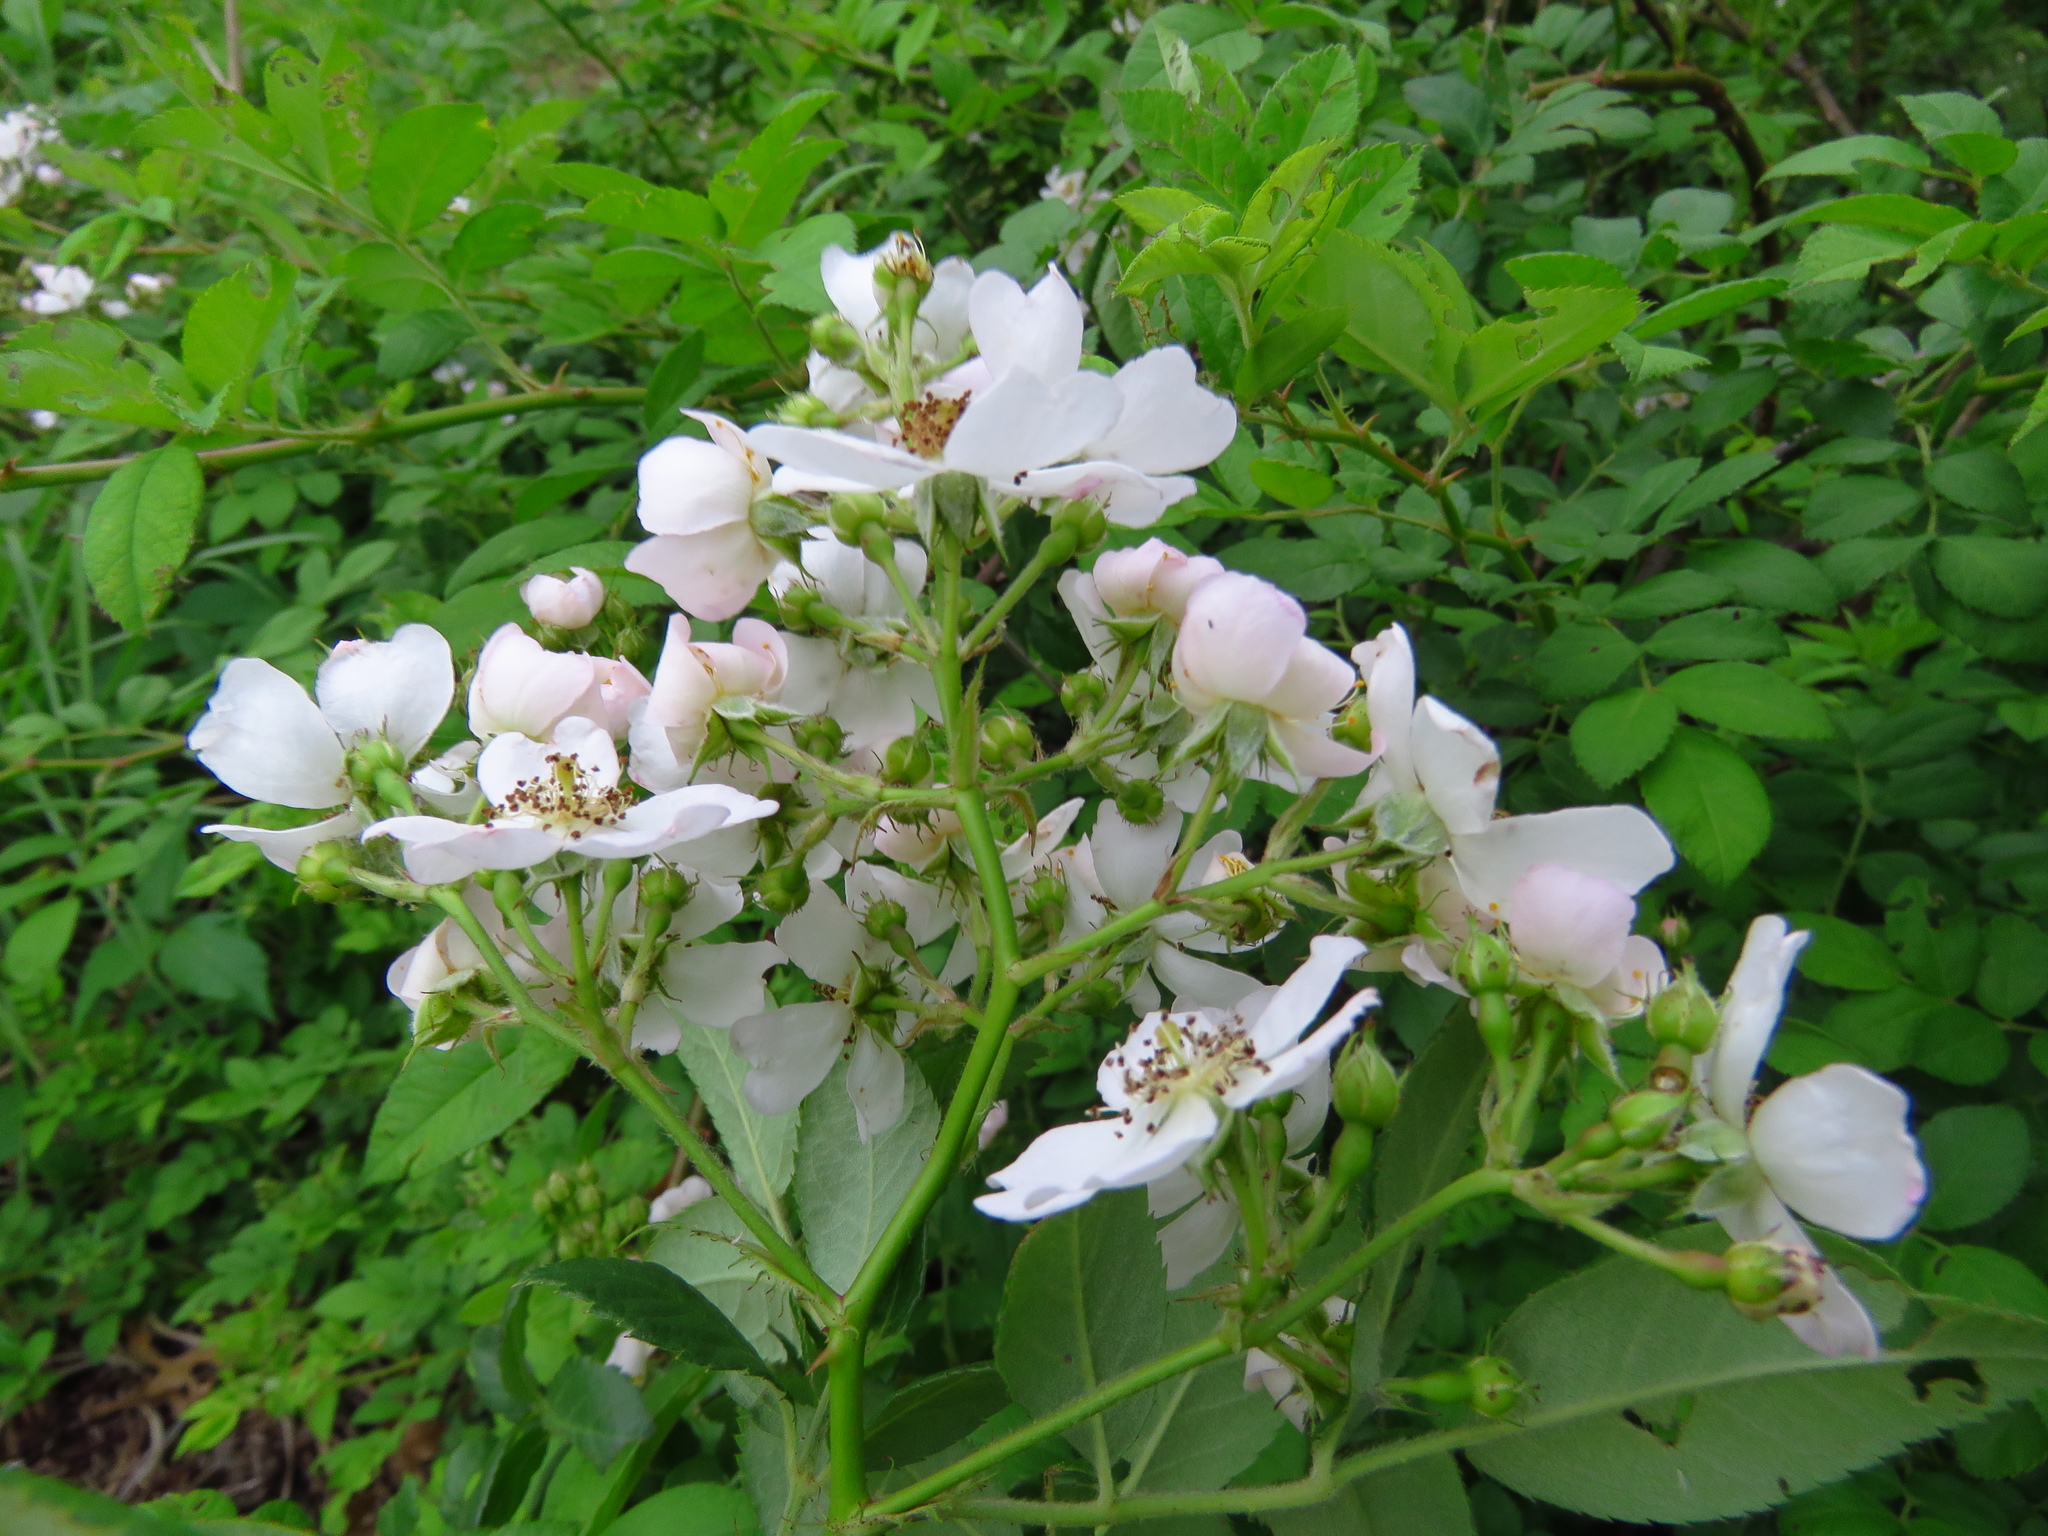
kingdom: Plantae
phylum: Tracheophyta
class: Magnoliopsida
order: Rosales
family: Rosaceae
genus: Rosa
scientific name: Rosa multiflora
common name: Multiflora rose
